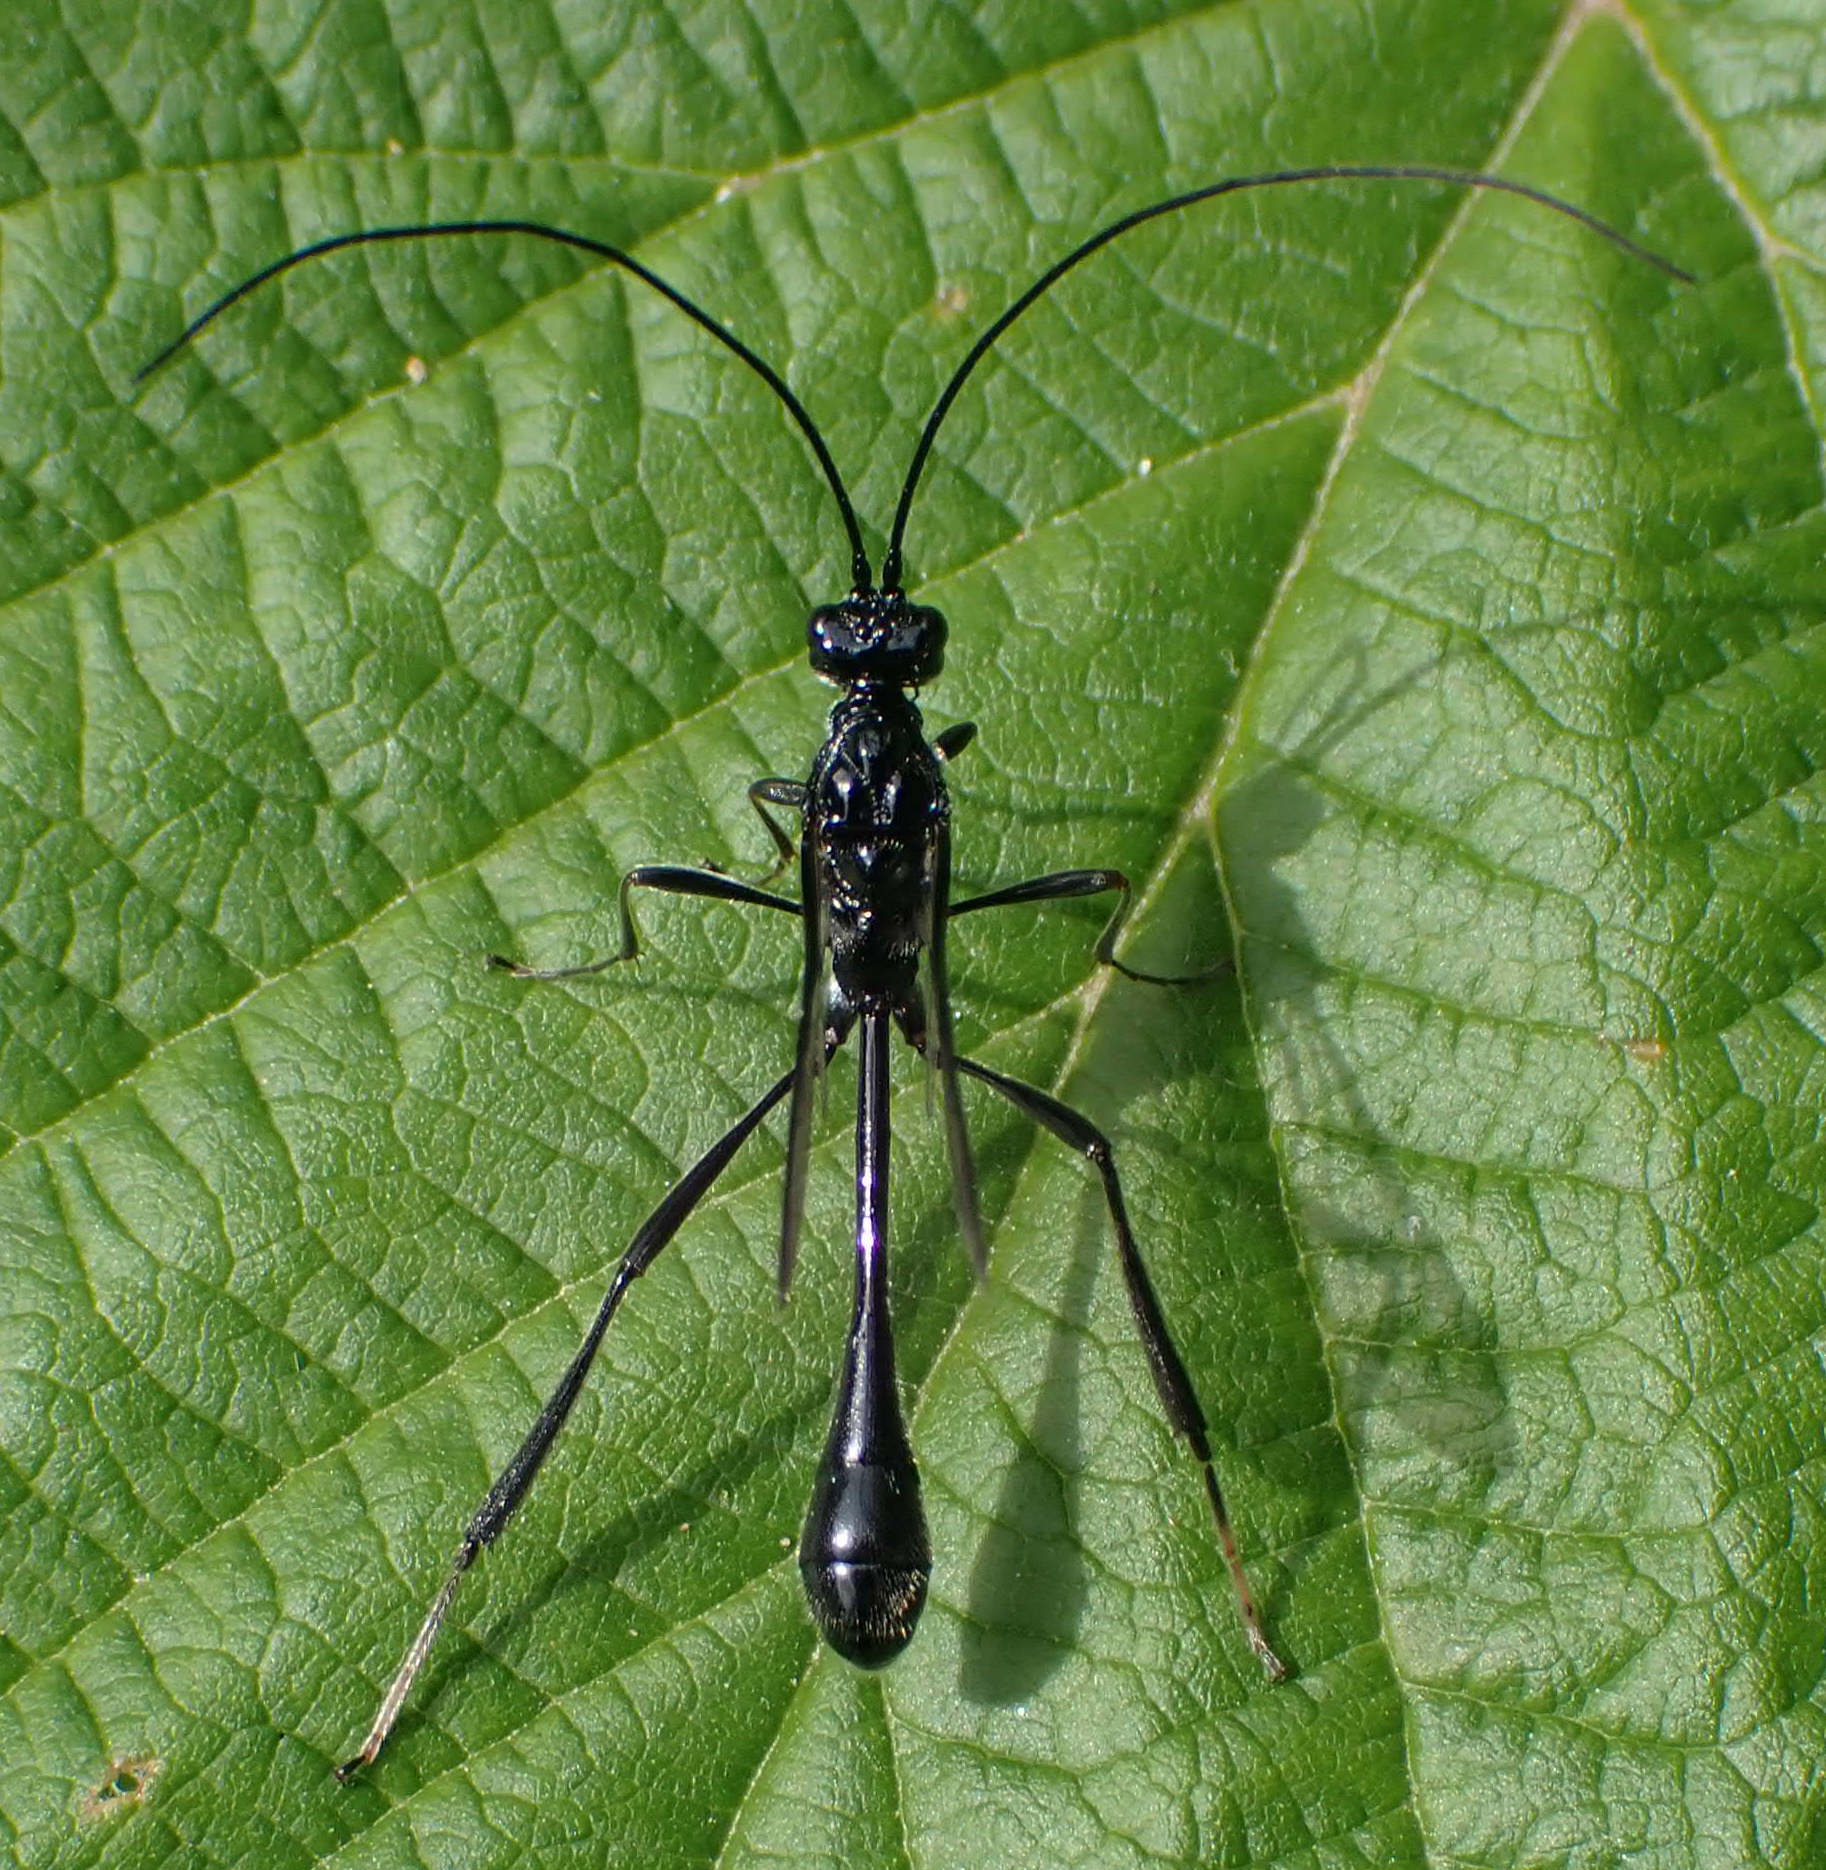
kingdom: Animalia
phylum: Arthropoda
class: Insecta
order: Hymenoptera
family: Pelecinidae
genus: Pelecinus
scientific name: Pelecinus polyturator
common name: American pelecinid wasp
